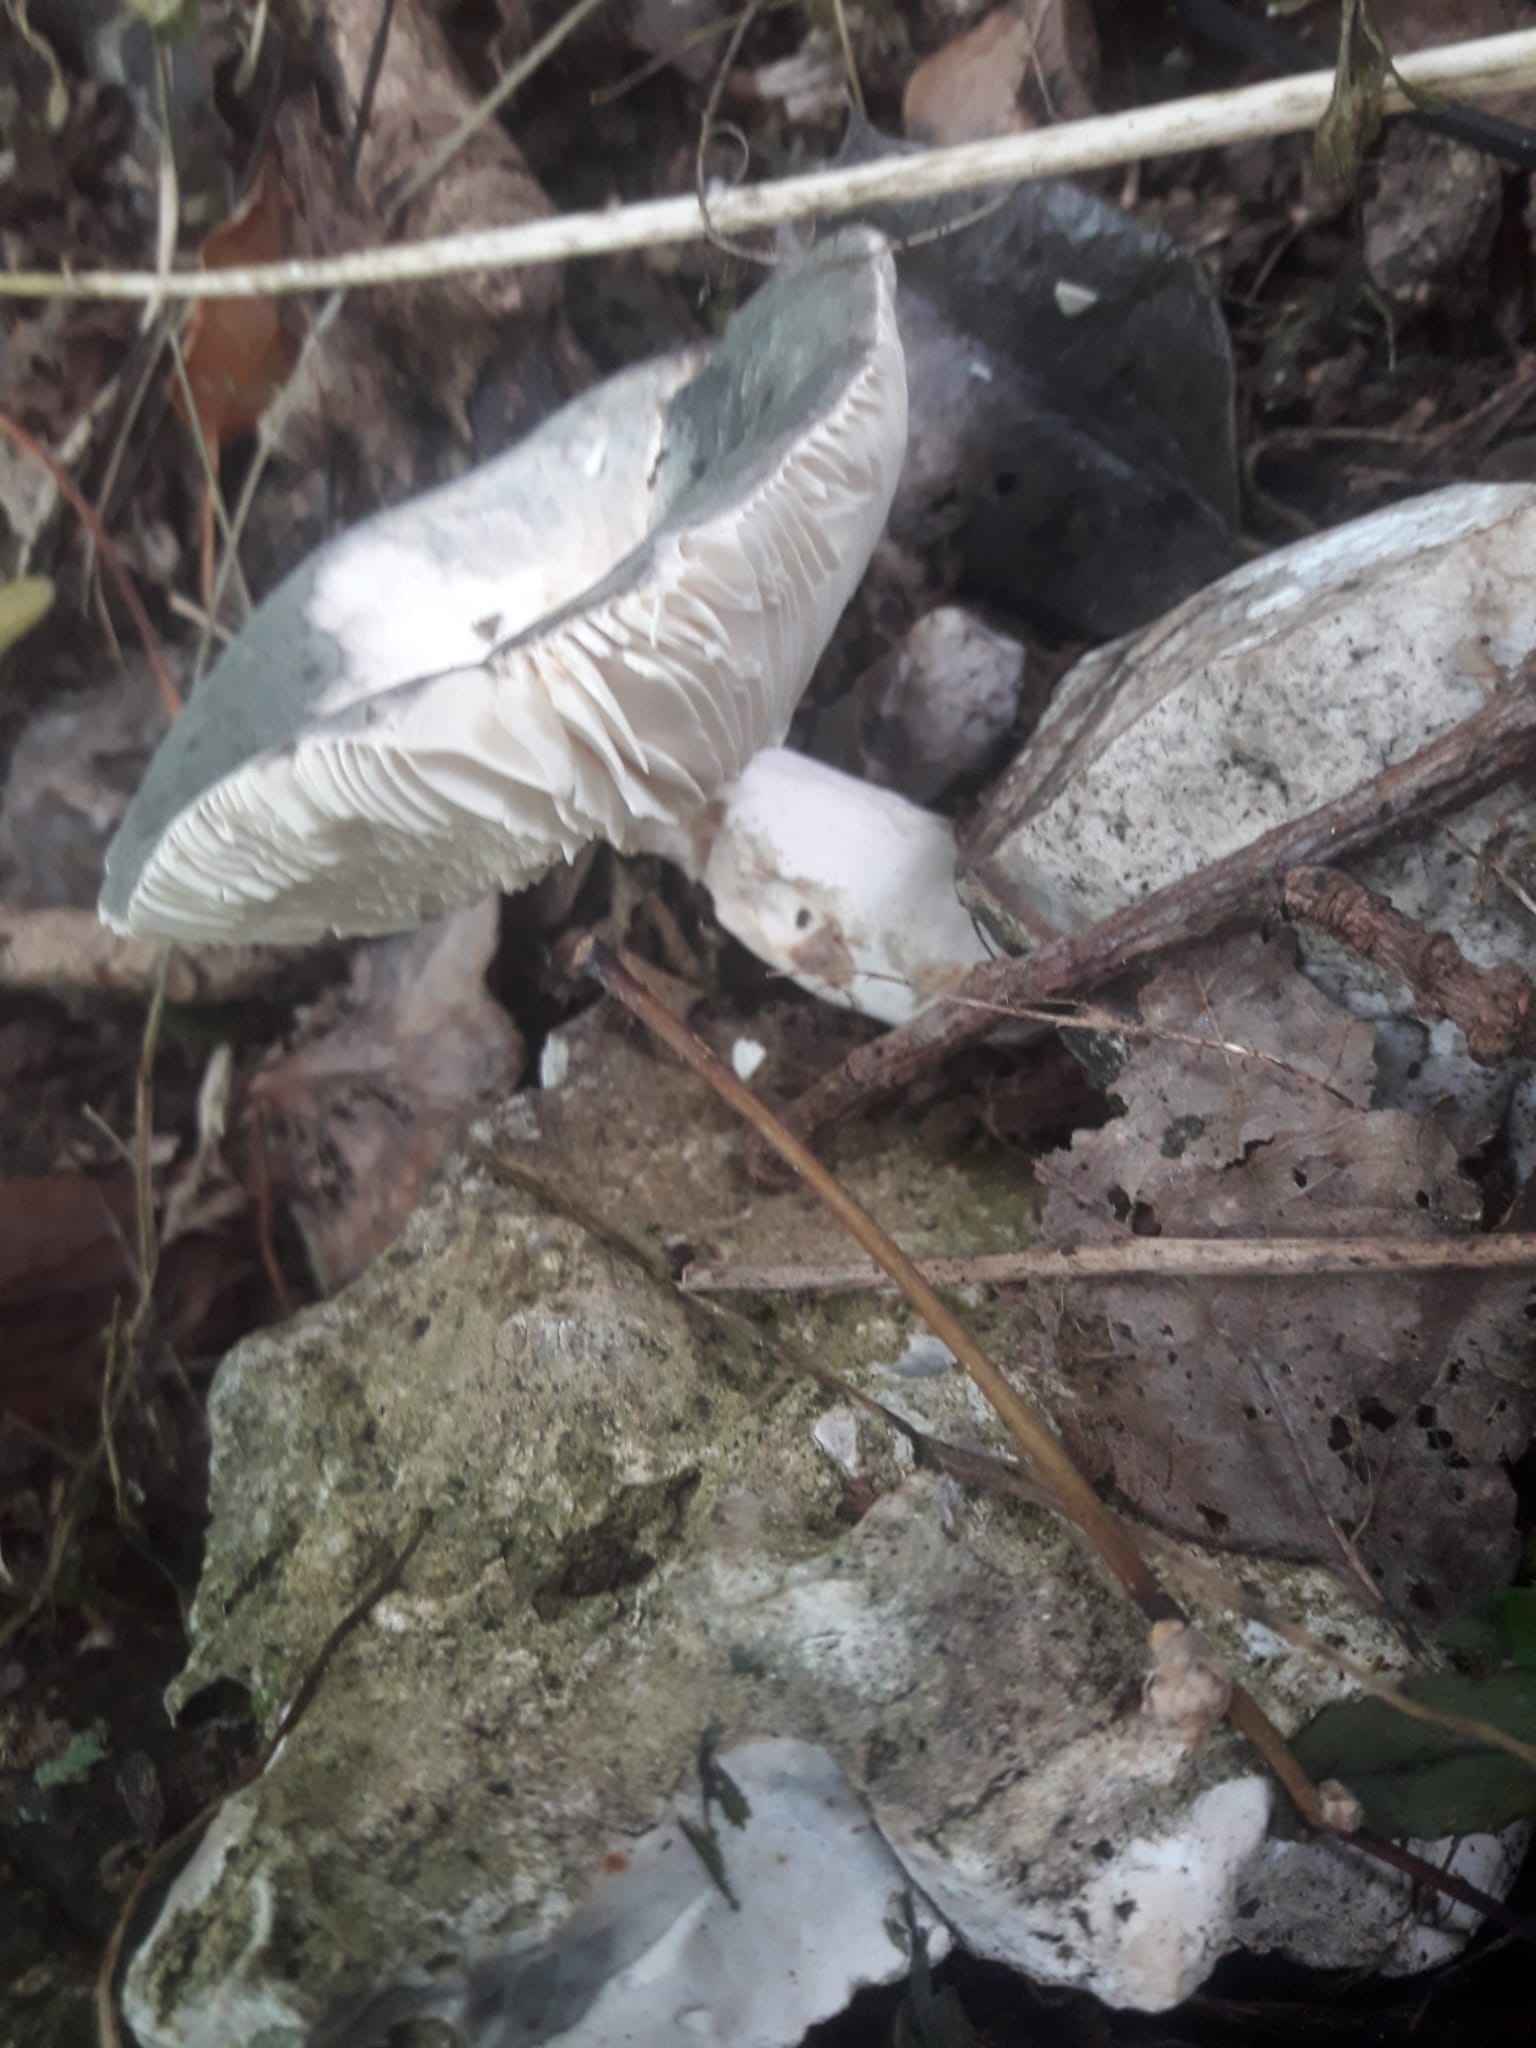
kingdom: Fungi
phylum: Basidiomycota
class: Agaricomycetes
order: Russulales
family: Russulaceae
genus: Russula
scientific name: Russula cyanoxantha
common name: Charcoal burner
